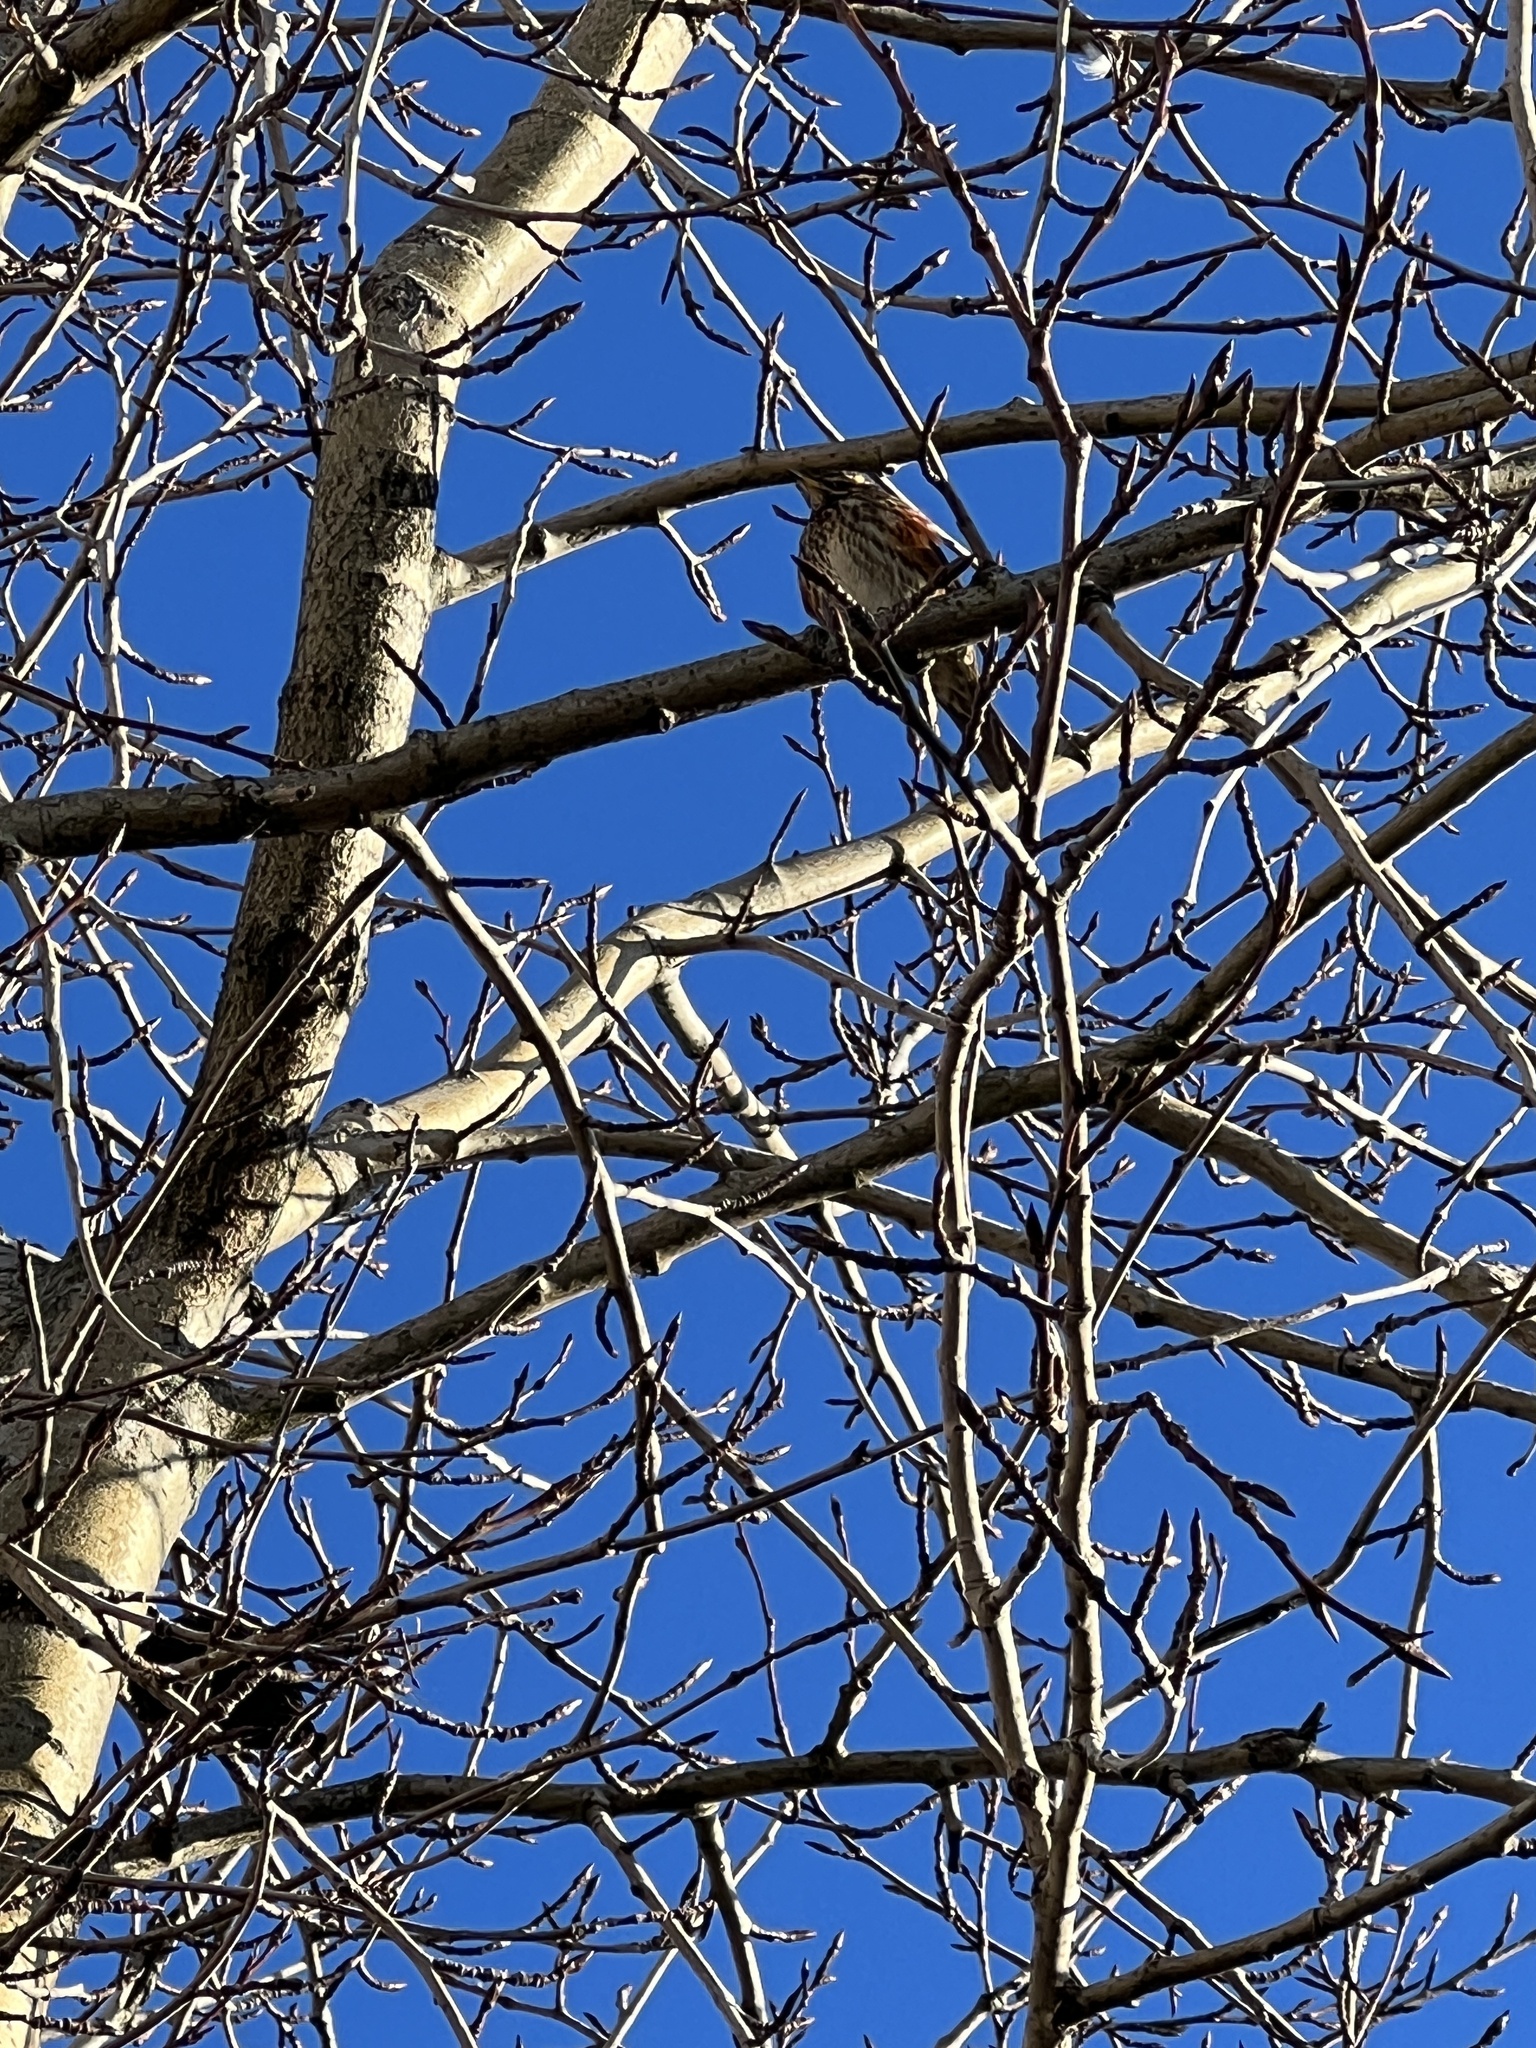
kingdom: Animalia
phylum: Chordata
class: Aves
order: Passeriformes
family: Turdidae
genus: Turdus
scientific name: Turdus iliacus
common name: Redwing
